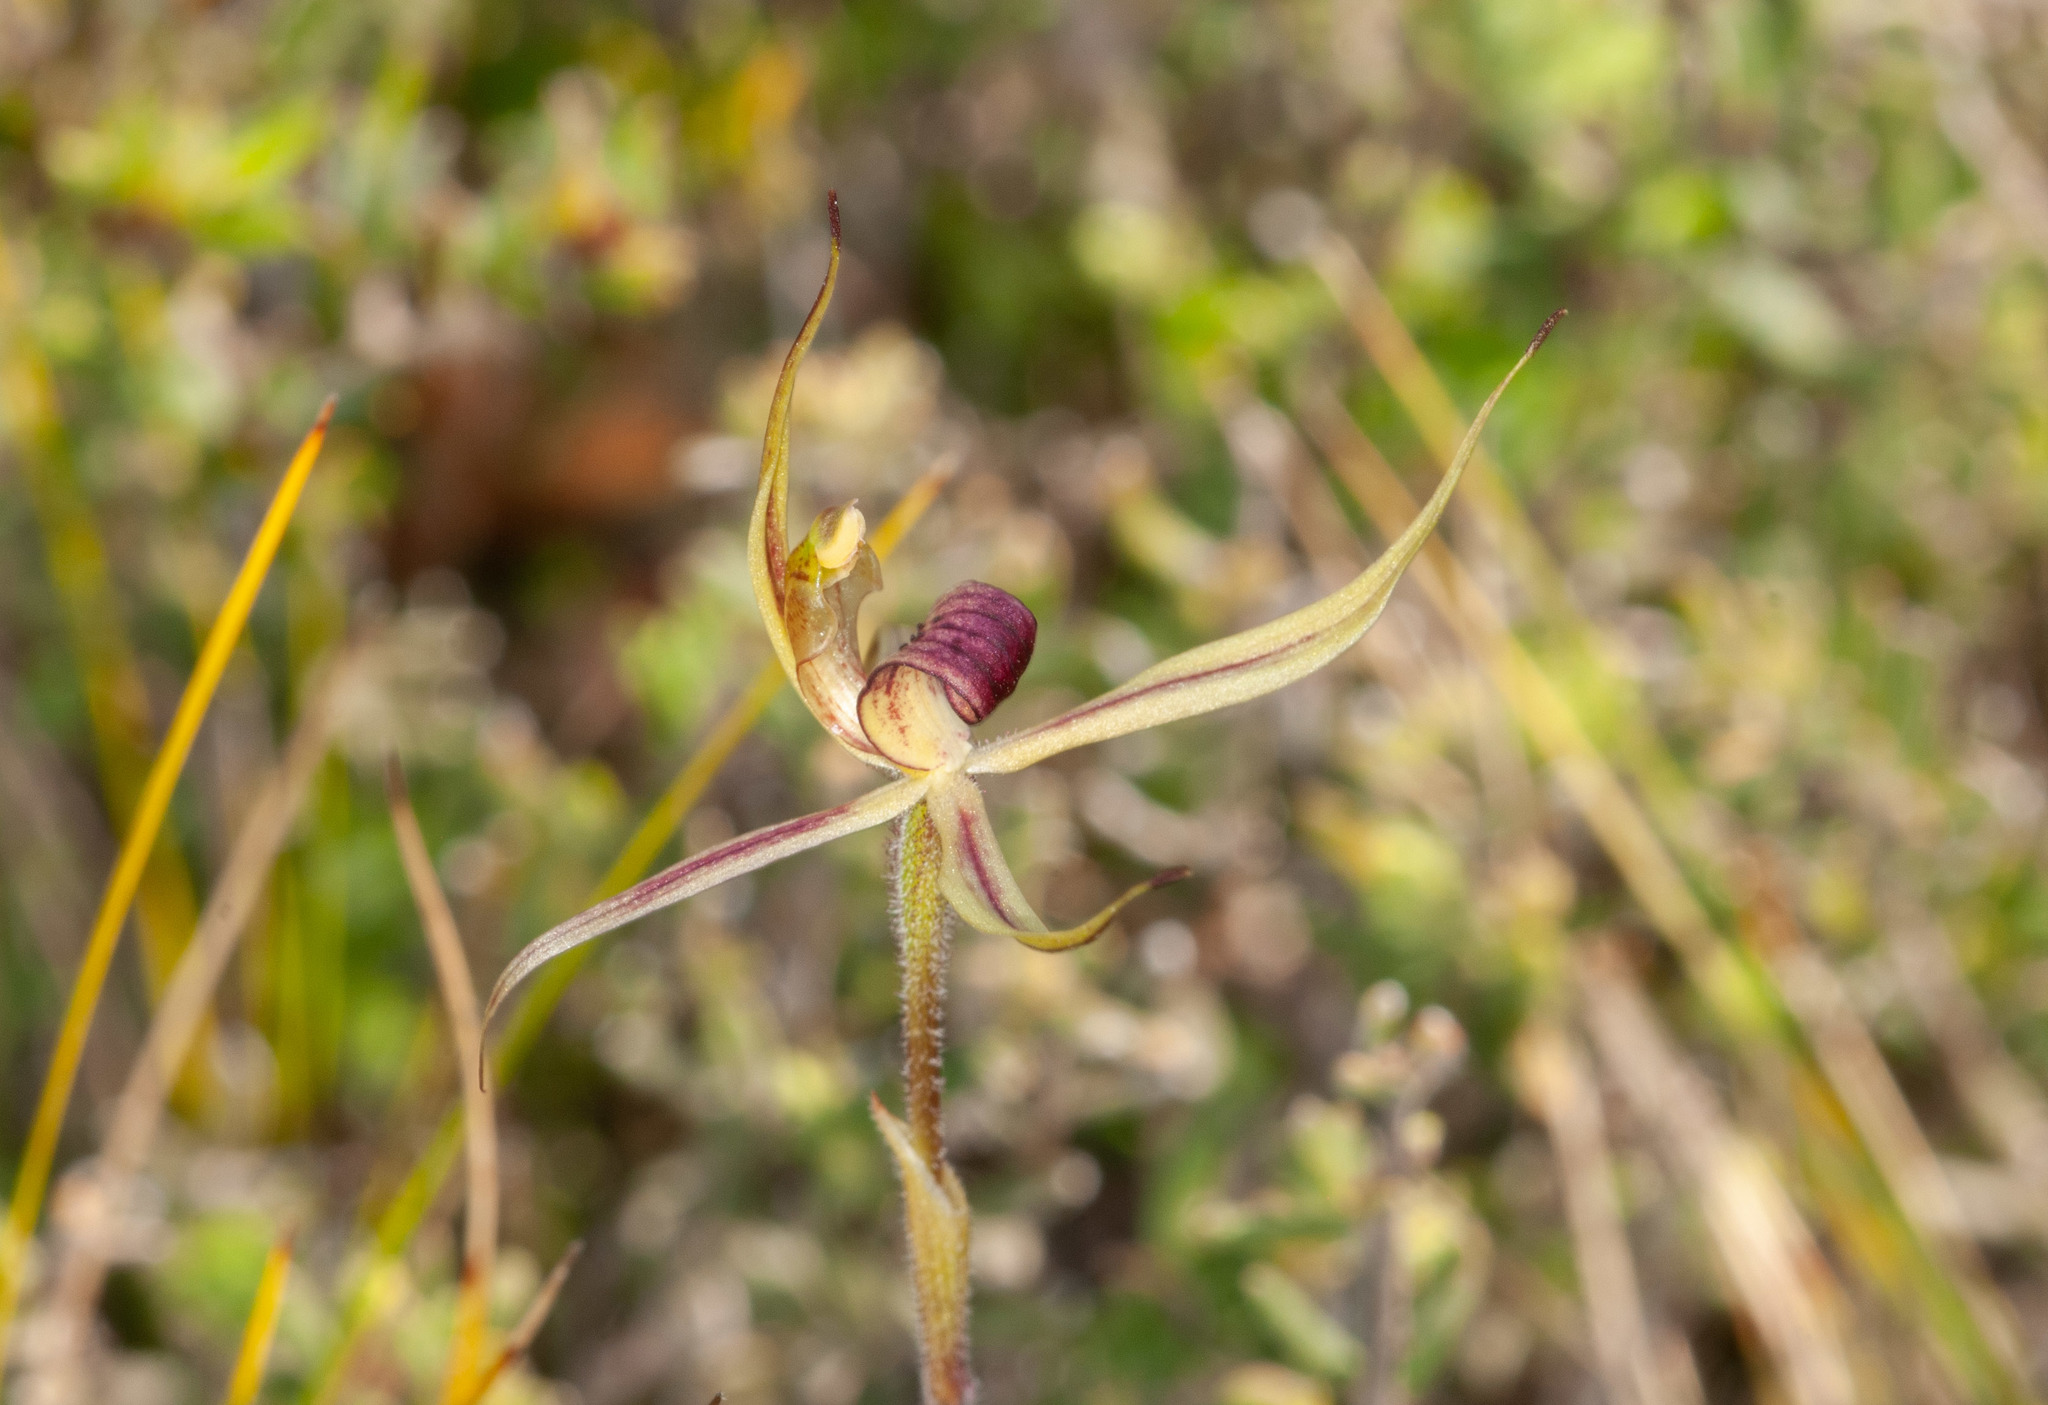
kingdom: Plantae
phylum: Tracheophyta
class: Liliopsida
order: Asparagales
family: Orchidaceae
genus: Caladenia
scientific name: Caladenia leptochila
